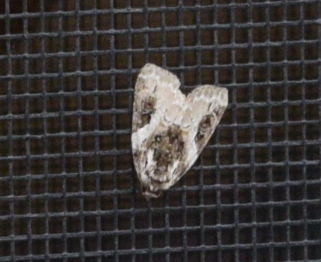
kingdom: Animalia
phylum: Arthropoda
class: Insecta
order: Lepidoptera
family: Noctuidae
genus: Pseudeustrotia
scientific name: Pseudeustrotia carneola
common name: Pink-barred lithacodia moth
